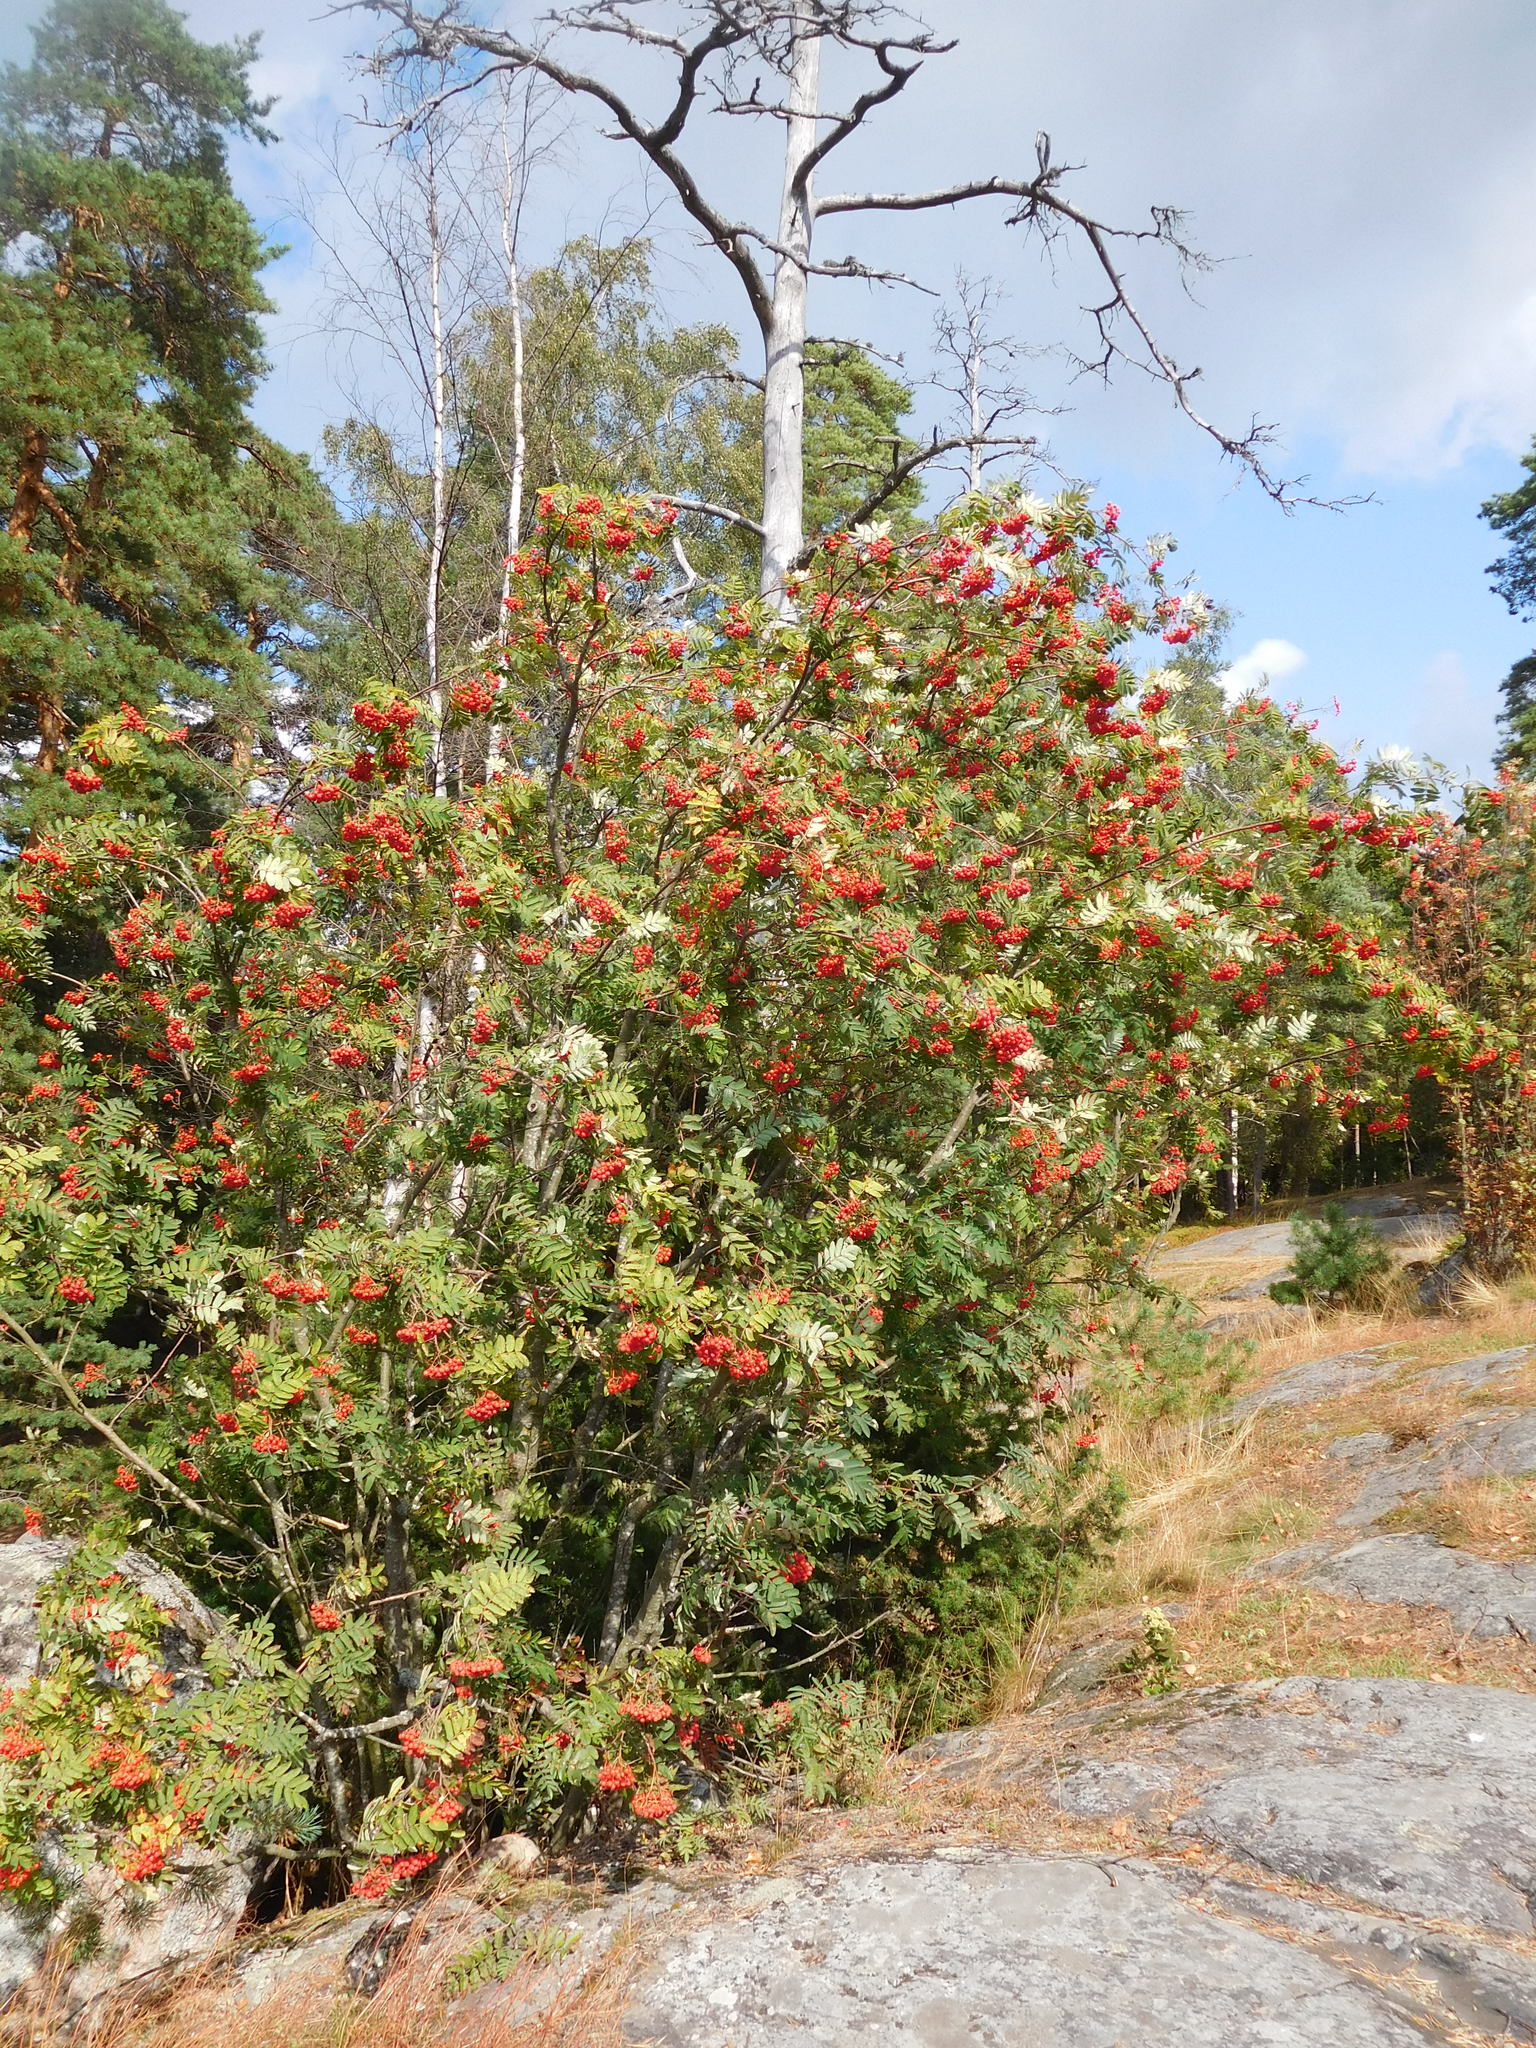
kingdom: Plantae
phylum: Tracheophyta
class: Magnoliopsida
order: Rosales
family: Rosaceae
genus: Sorbus
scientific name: Sorbus aucuparia
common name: Rowan
